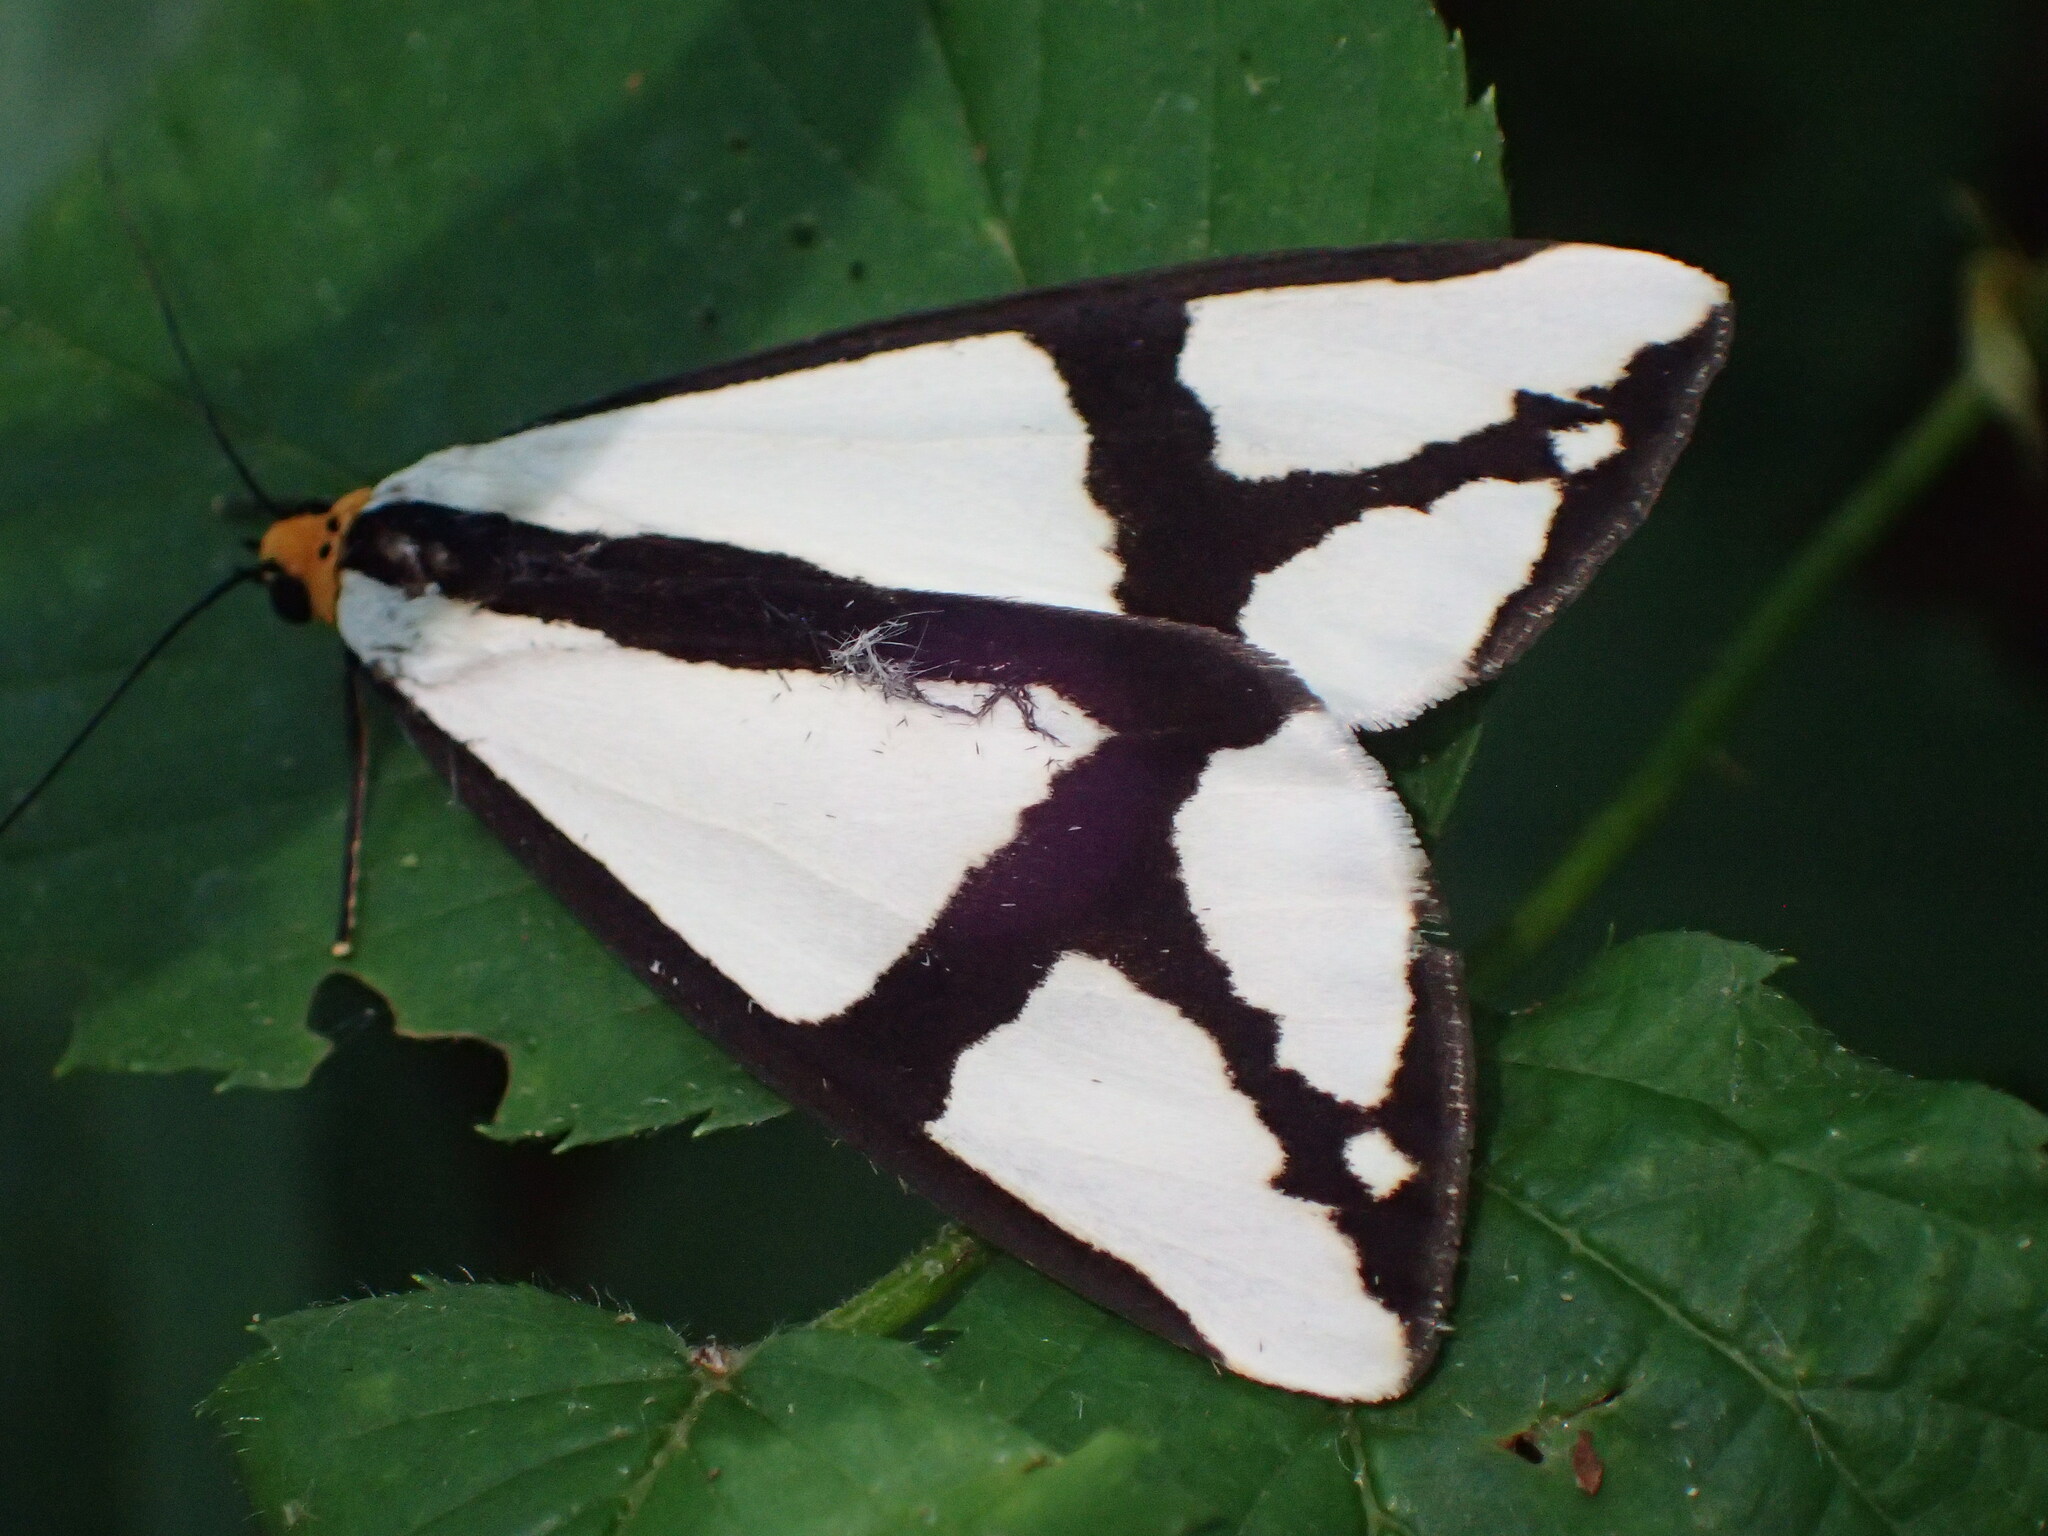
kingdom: Animalia
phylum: Arthropoda
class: Insecta
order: Lepidoptera
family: Erebidae
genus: Haploa
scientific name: Haploa contigua
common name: Neighbor moth
